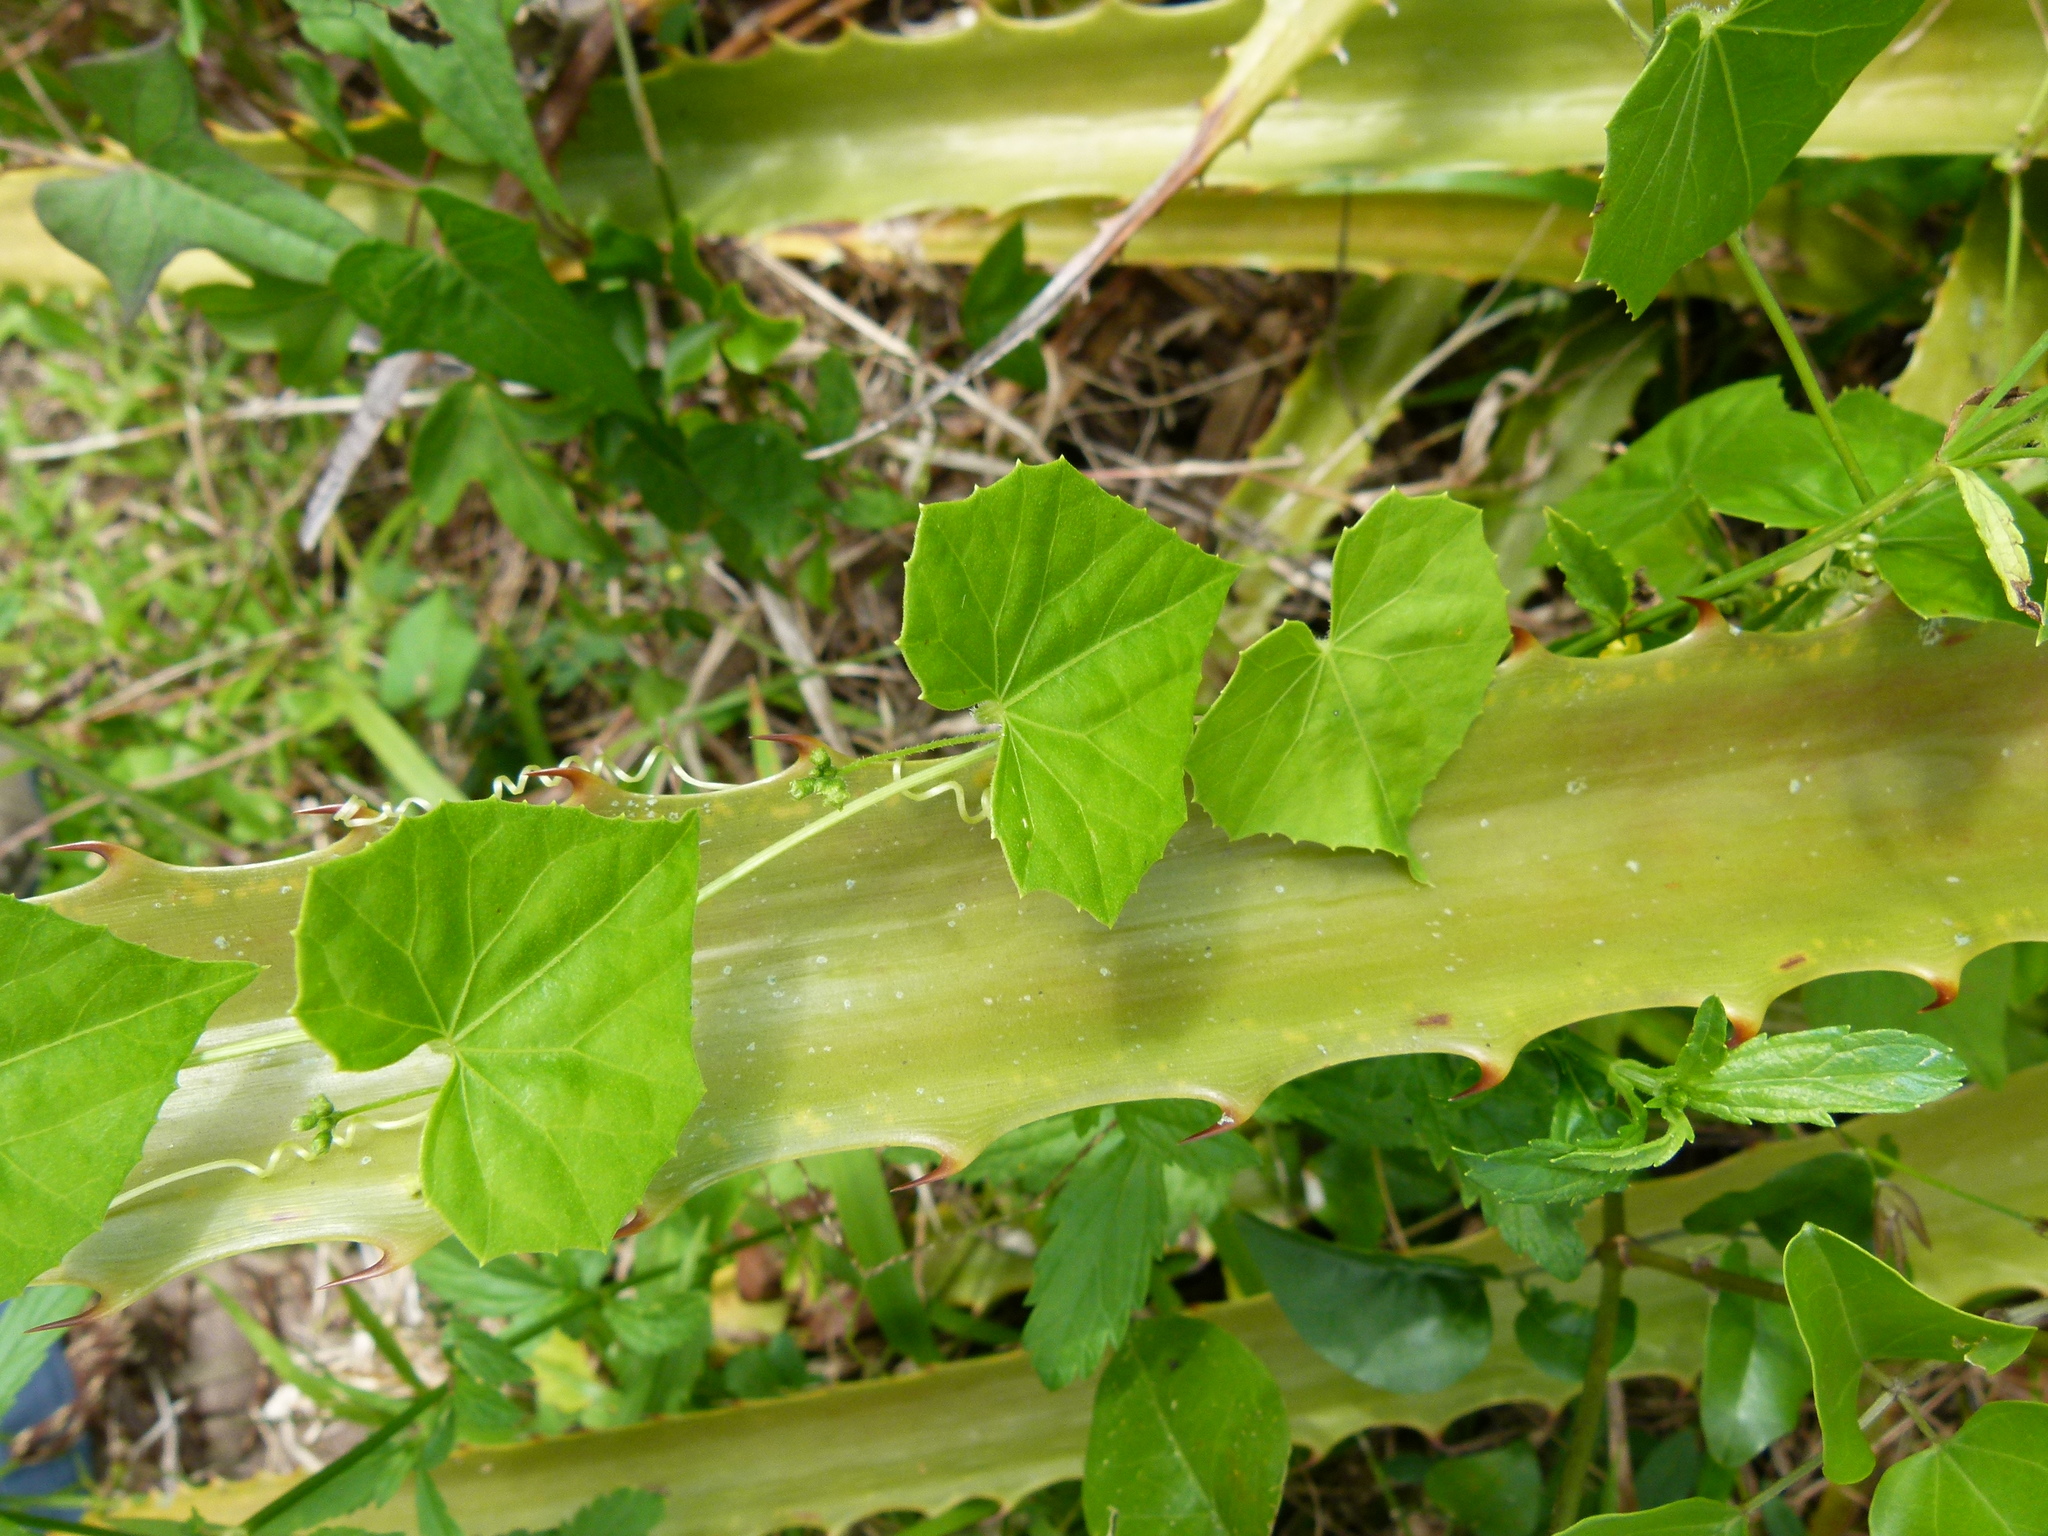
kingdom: Plantae
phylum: Tracheophyta
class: Magnoliopsida
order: Cucurbitales
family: Cucurbitaceae
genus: Melothria
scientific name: Melothria pendula
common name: Creeping-cucumber
